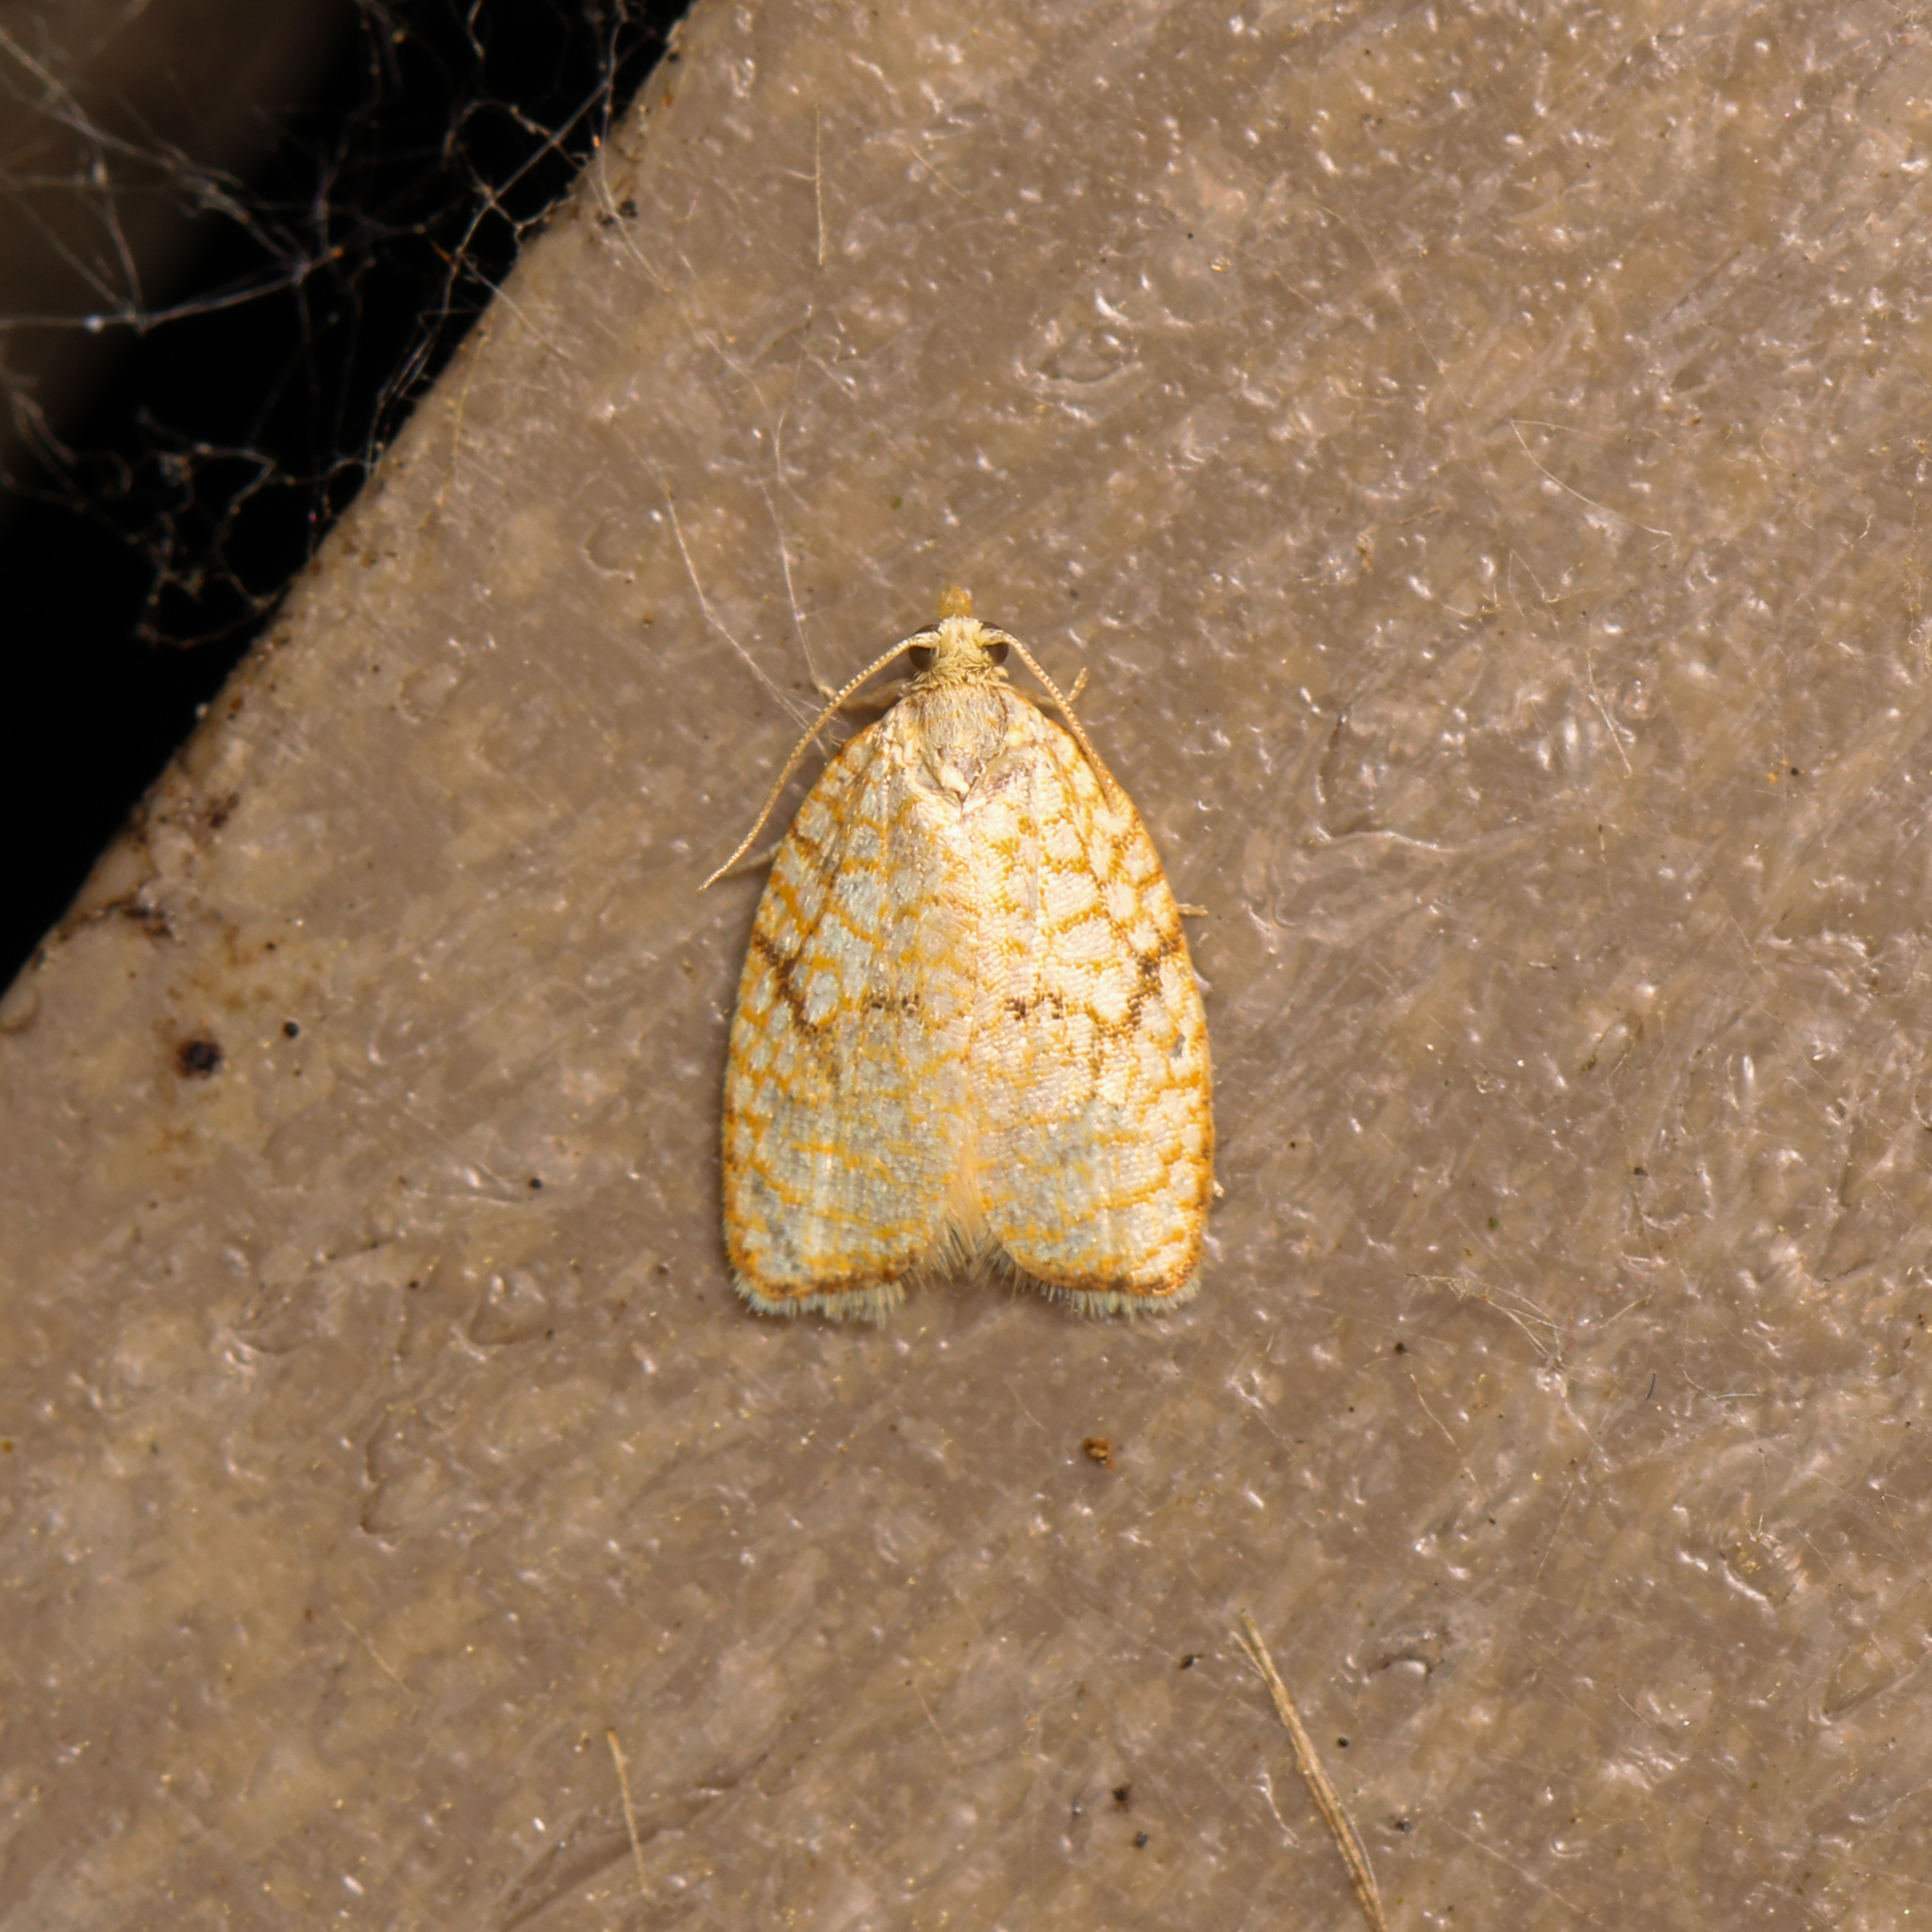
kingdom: Animalia
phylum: Arthropoda
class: Insecta
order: Lepidoptera
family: Tortricidae
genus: Acleris
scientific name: Acleris forsskaleana
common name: Maple button
